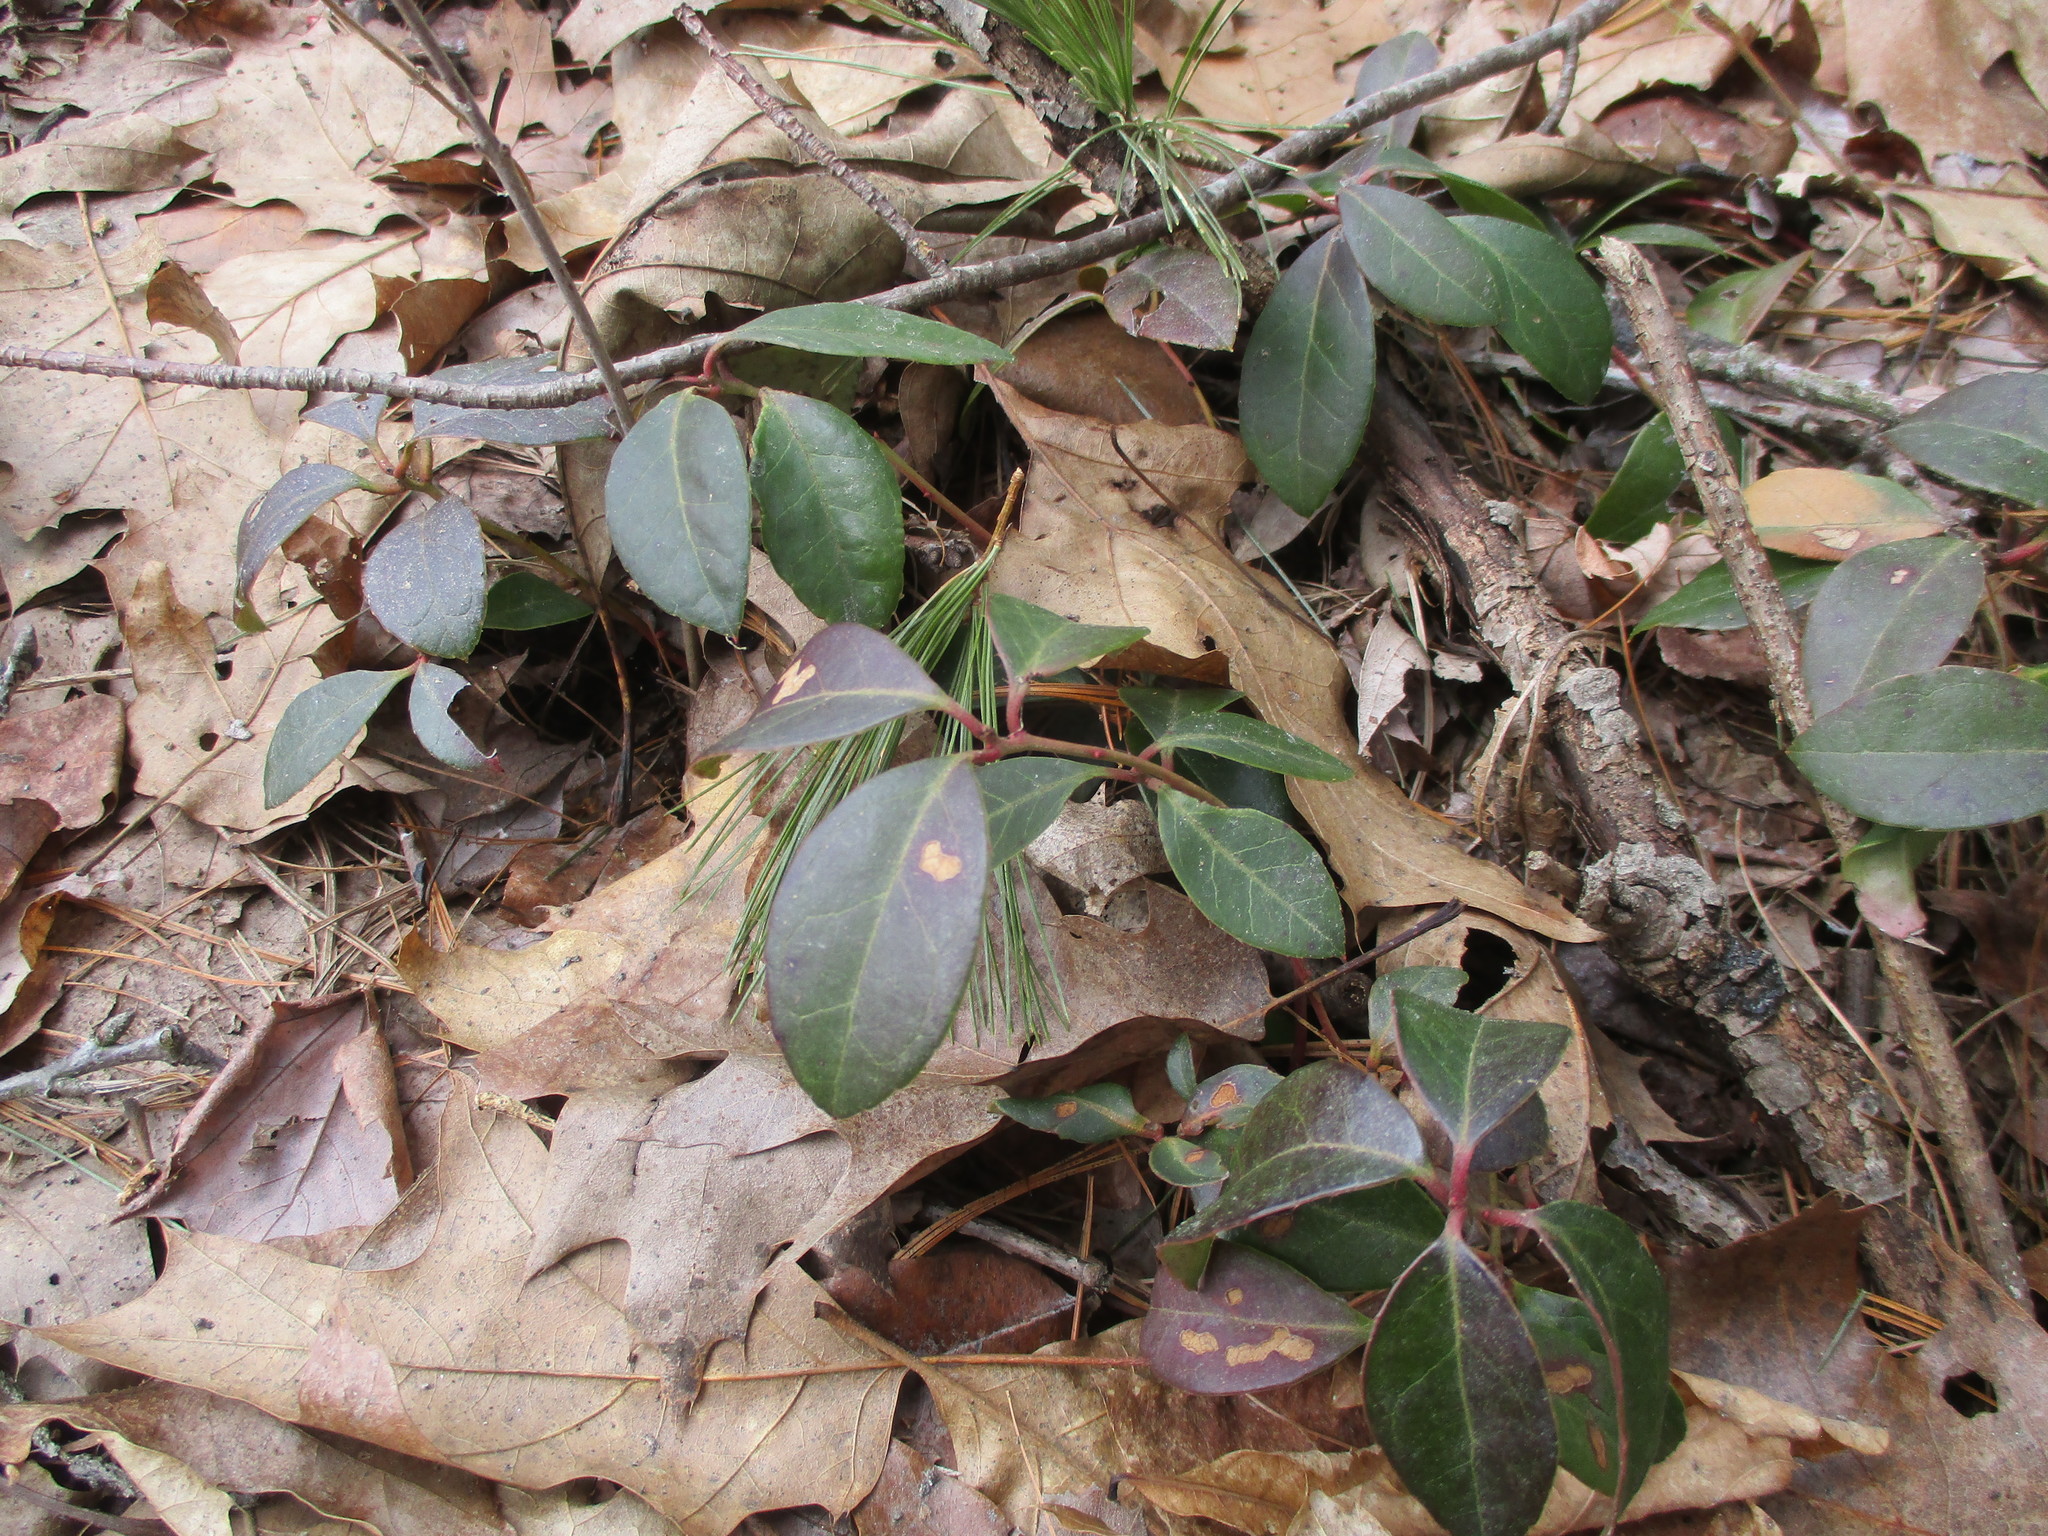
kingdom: Plantae
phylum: Tracheophyta
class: Magnoliopsida
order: Ericales
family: Ericaceae
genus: Gaultheria
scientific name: Gaultheria procumbens
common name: Checkerberry
